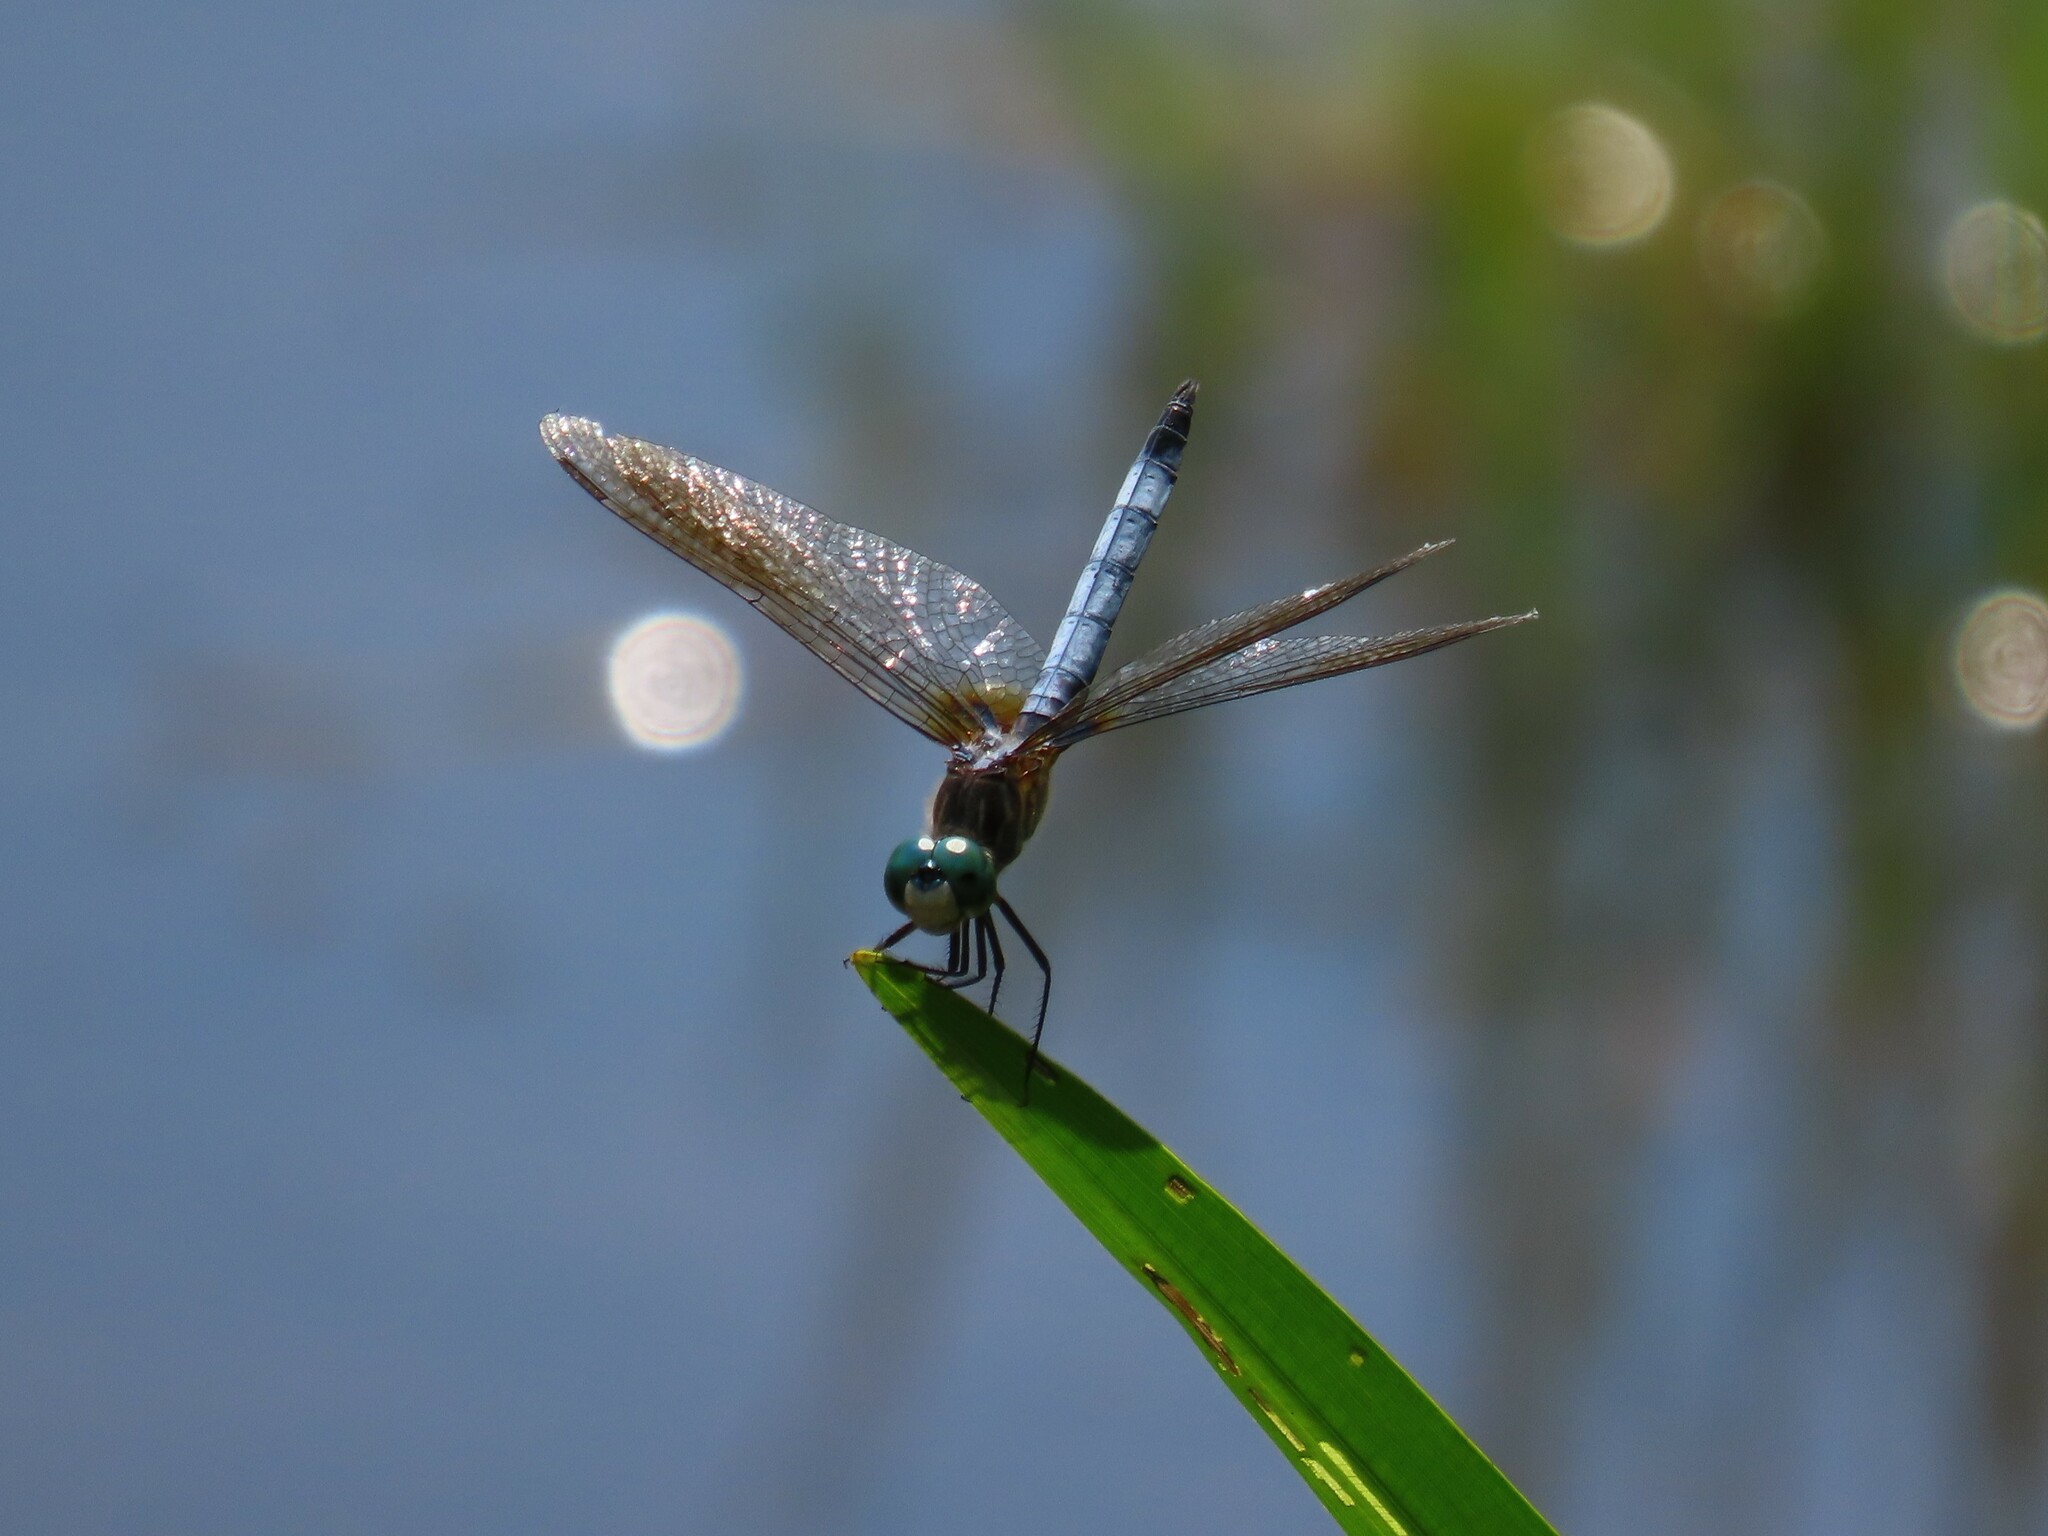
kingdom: Animalia
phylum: Arthropoda
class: Insecta
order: Odonata
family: Libellulidae
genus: Pachydiplax
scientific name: Pachydiplax longipennis
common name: Blue dasher
